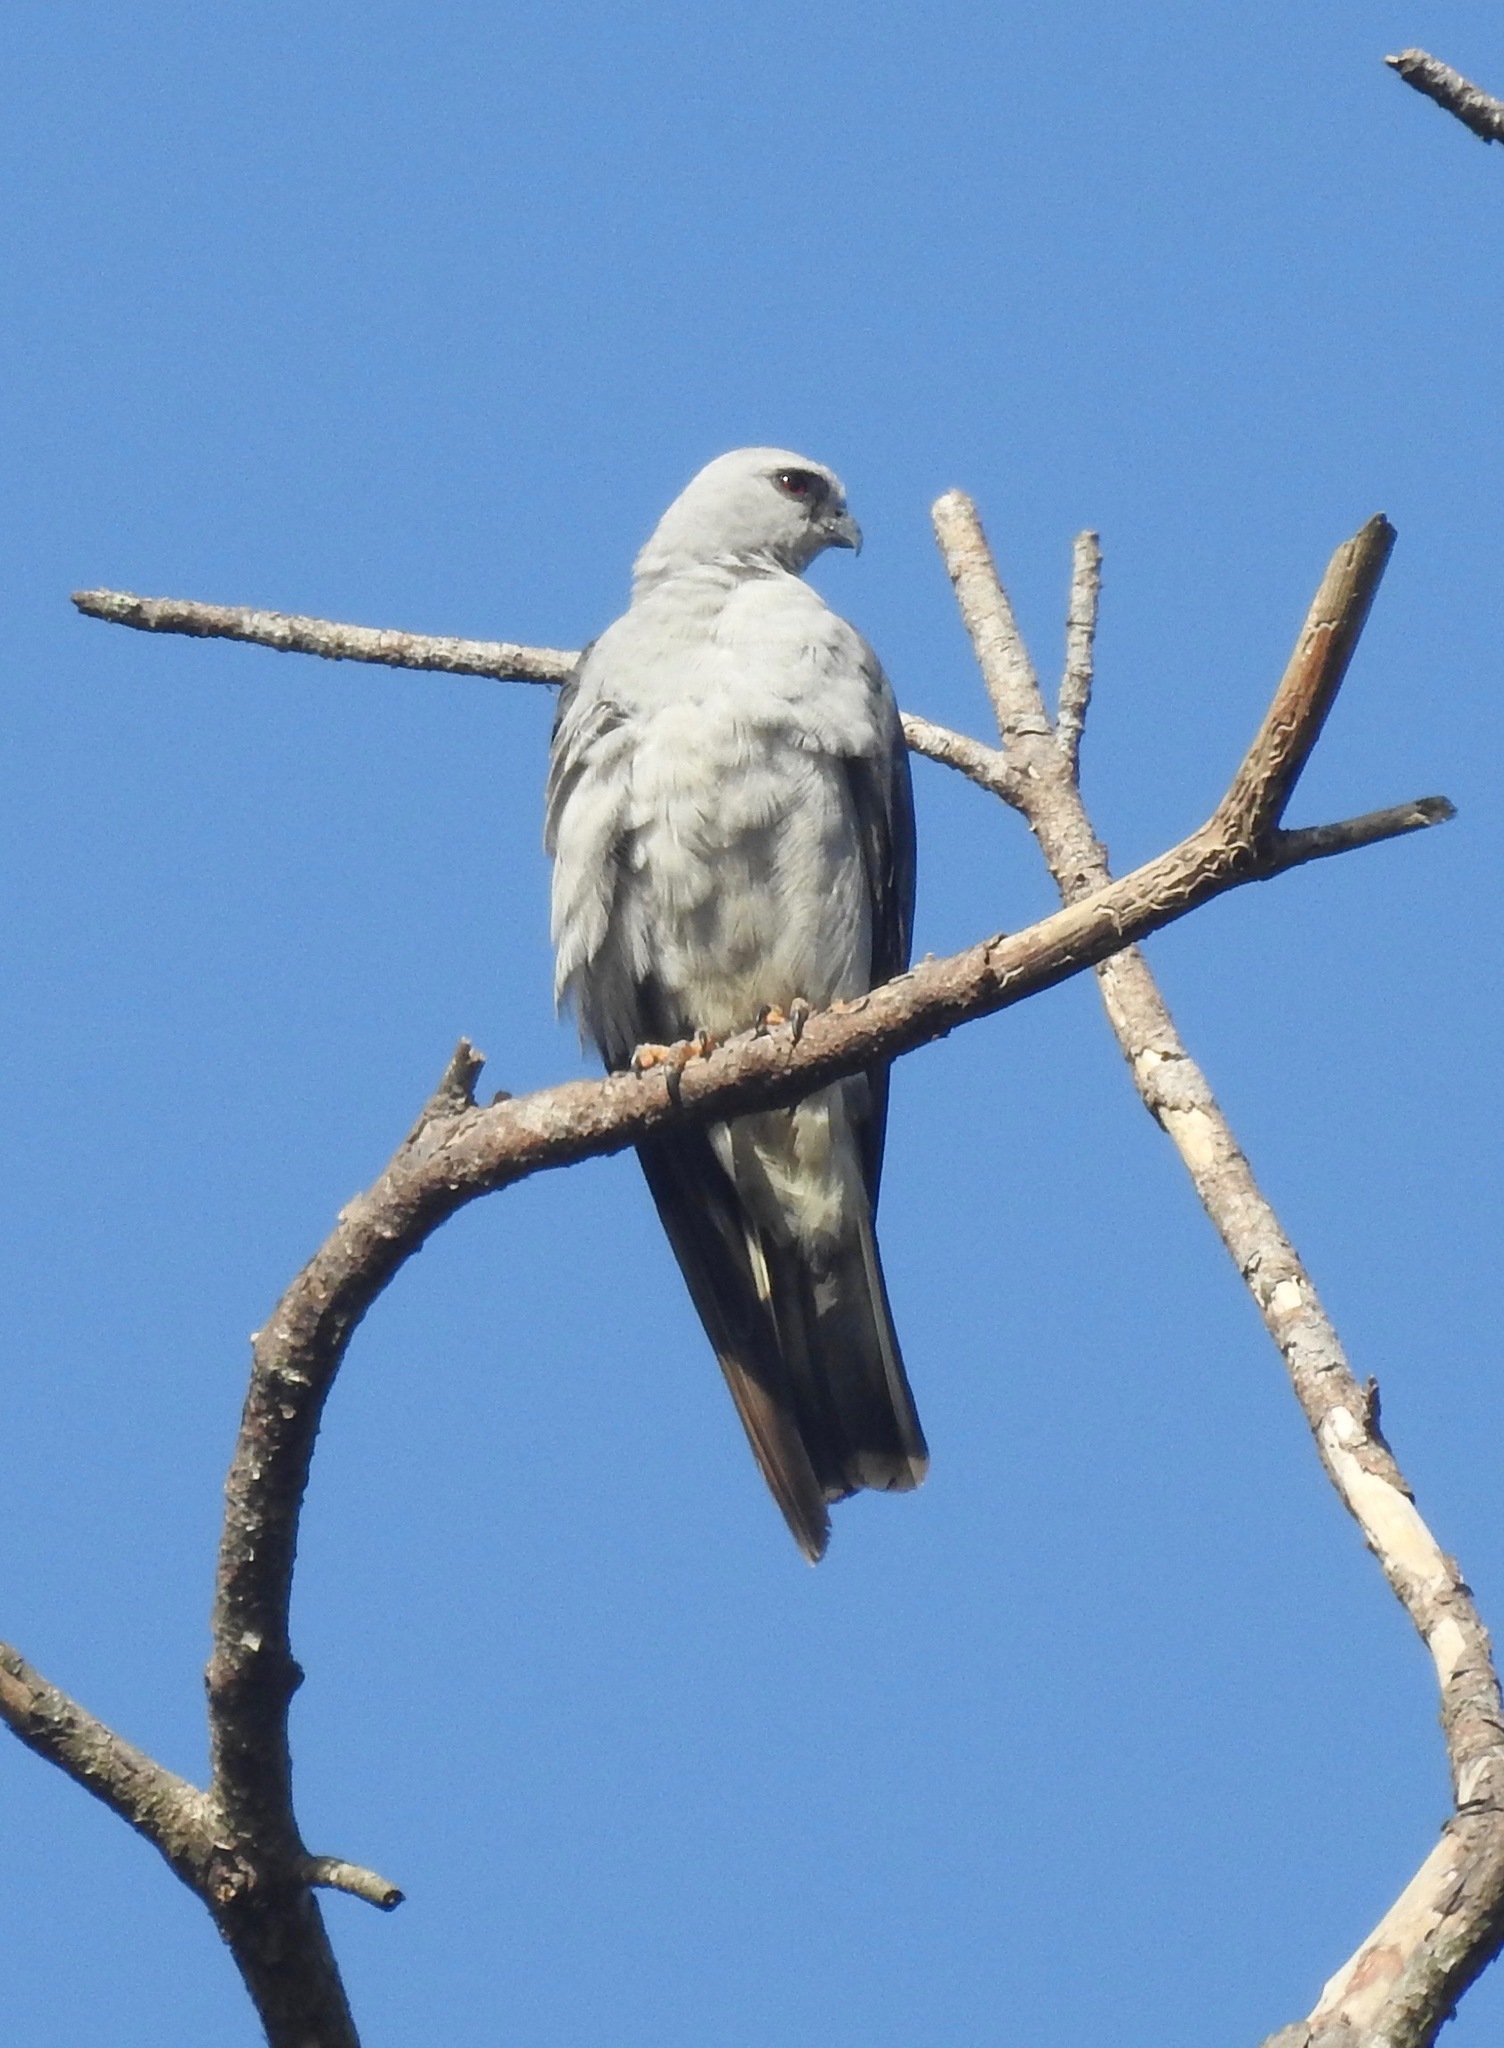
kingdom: Animalia
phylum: Chordata
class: Aves
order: Accipitriformes
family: Accipitridae
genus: Ictinia
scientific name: Ictinia mississippiensis
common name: Mississippi kite
